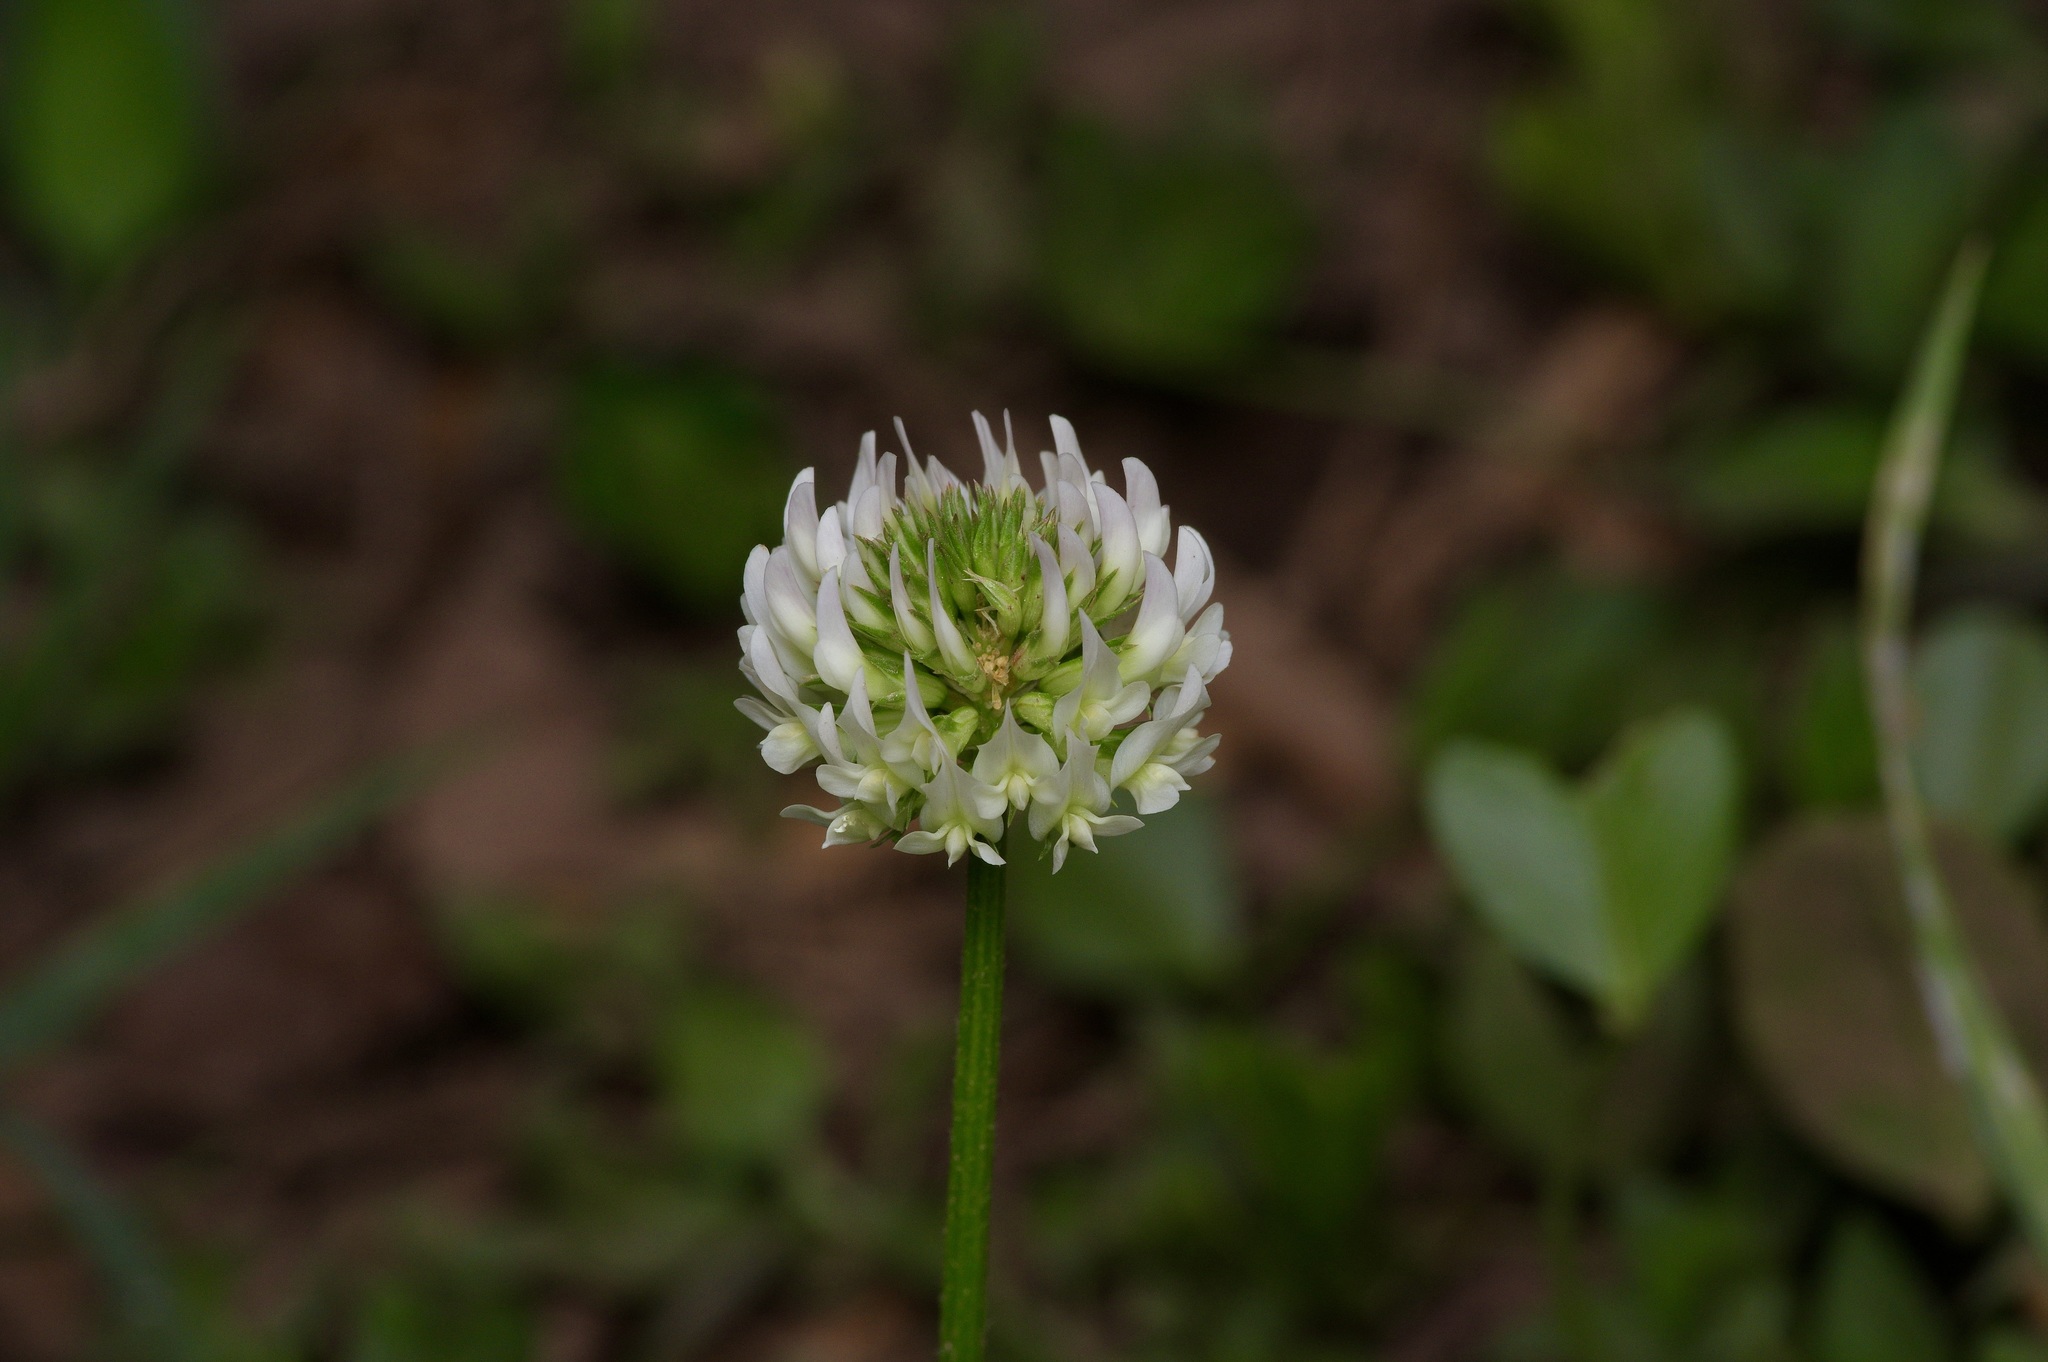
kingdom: Plantae
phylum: Tracheophyta
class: Magnoliopsida
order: Fabales
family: Fabaceae
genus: Trifolium
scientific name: Trifolium repens
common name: White clover
